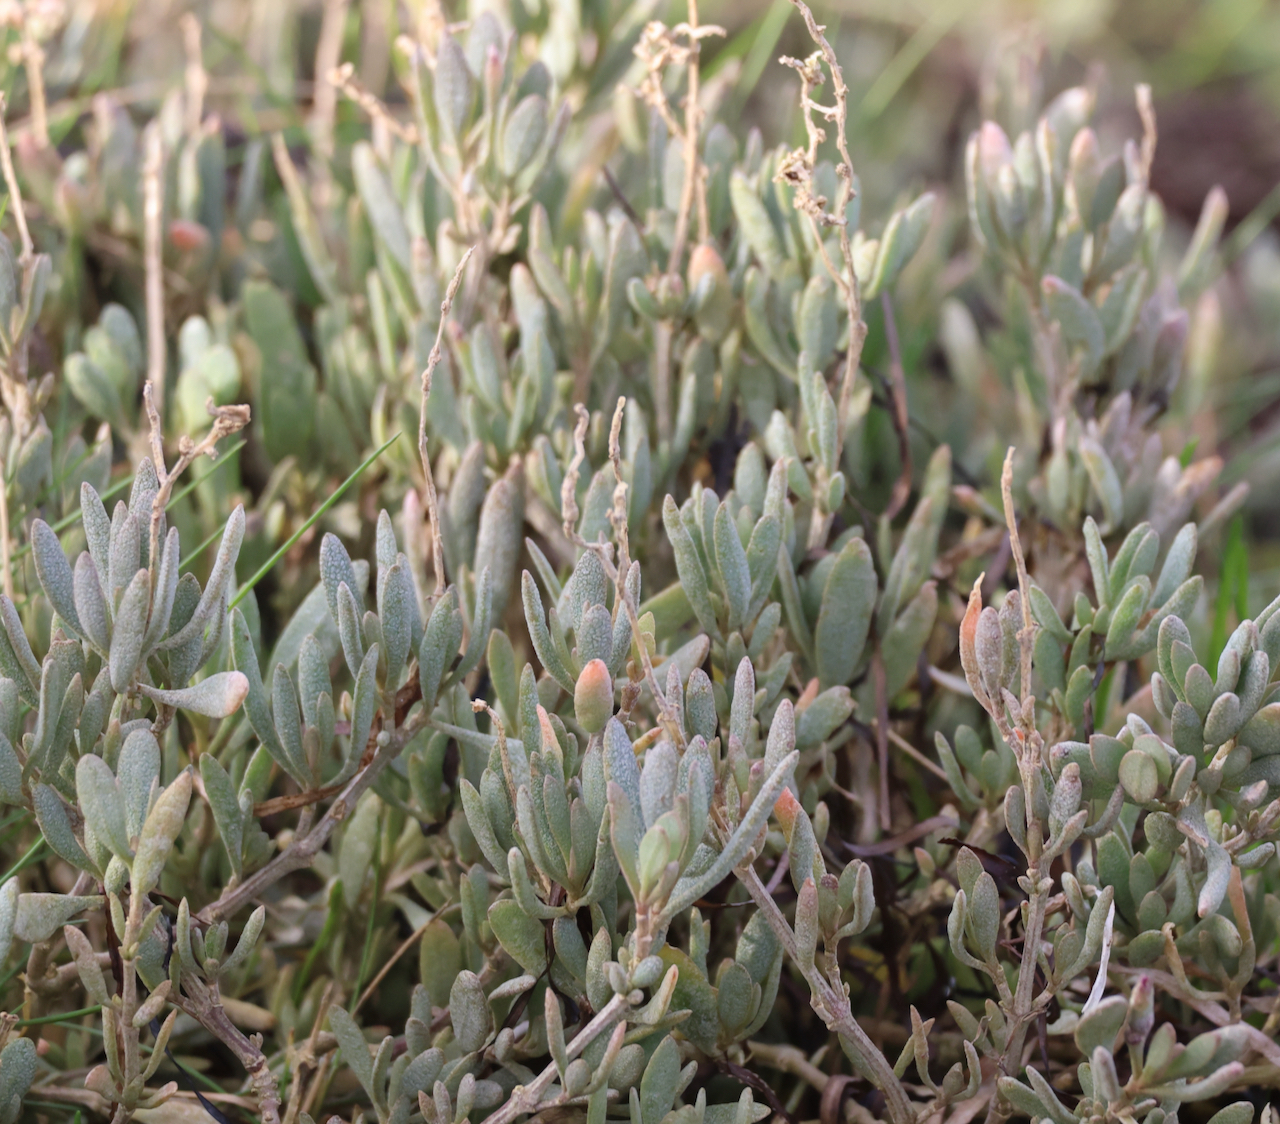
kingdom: Plantae
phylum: Tracheophyta
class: Magnoliopsida
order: Caryophyllales
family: Amaranthaceae
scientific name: Amaranthaceae
